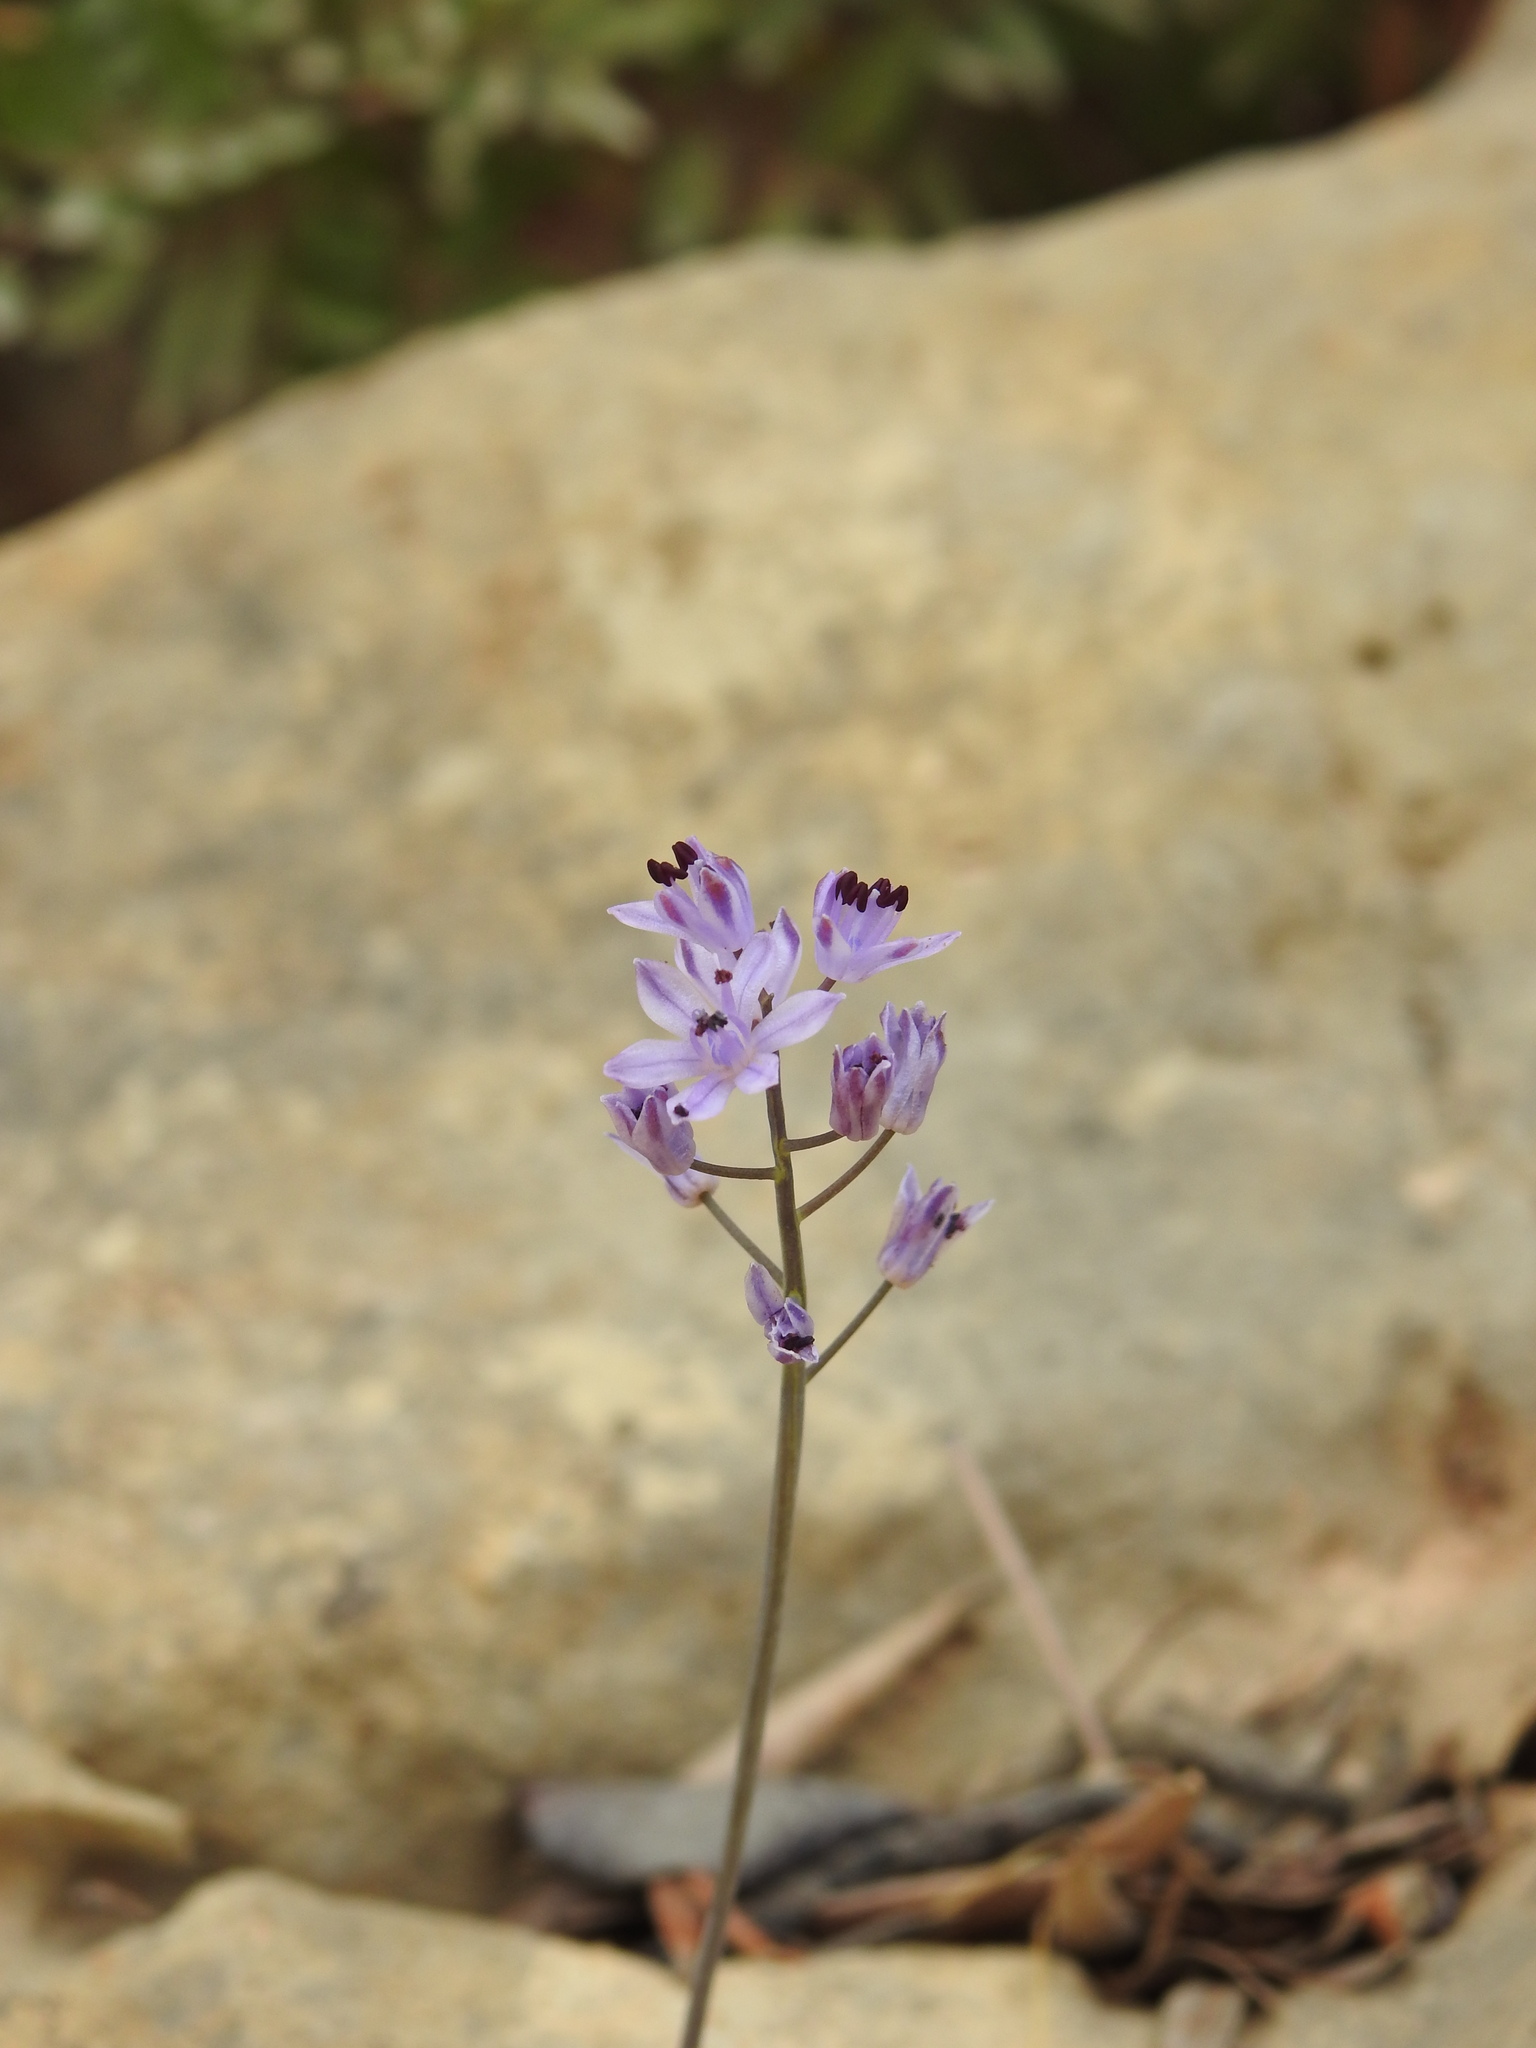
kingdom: Plantae
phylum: Tracheophyta
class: Liliopsida
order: Asparagales
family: Asparagaceae
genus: Prospero
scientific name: Prospero autumnale
